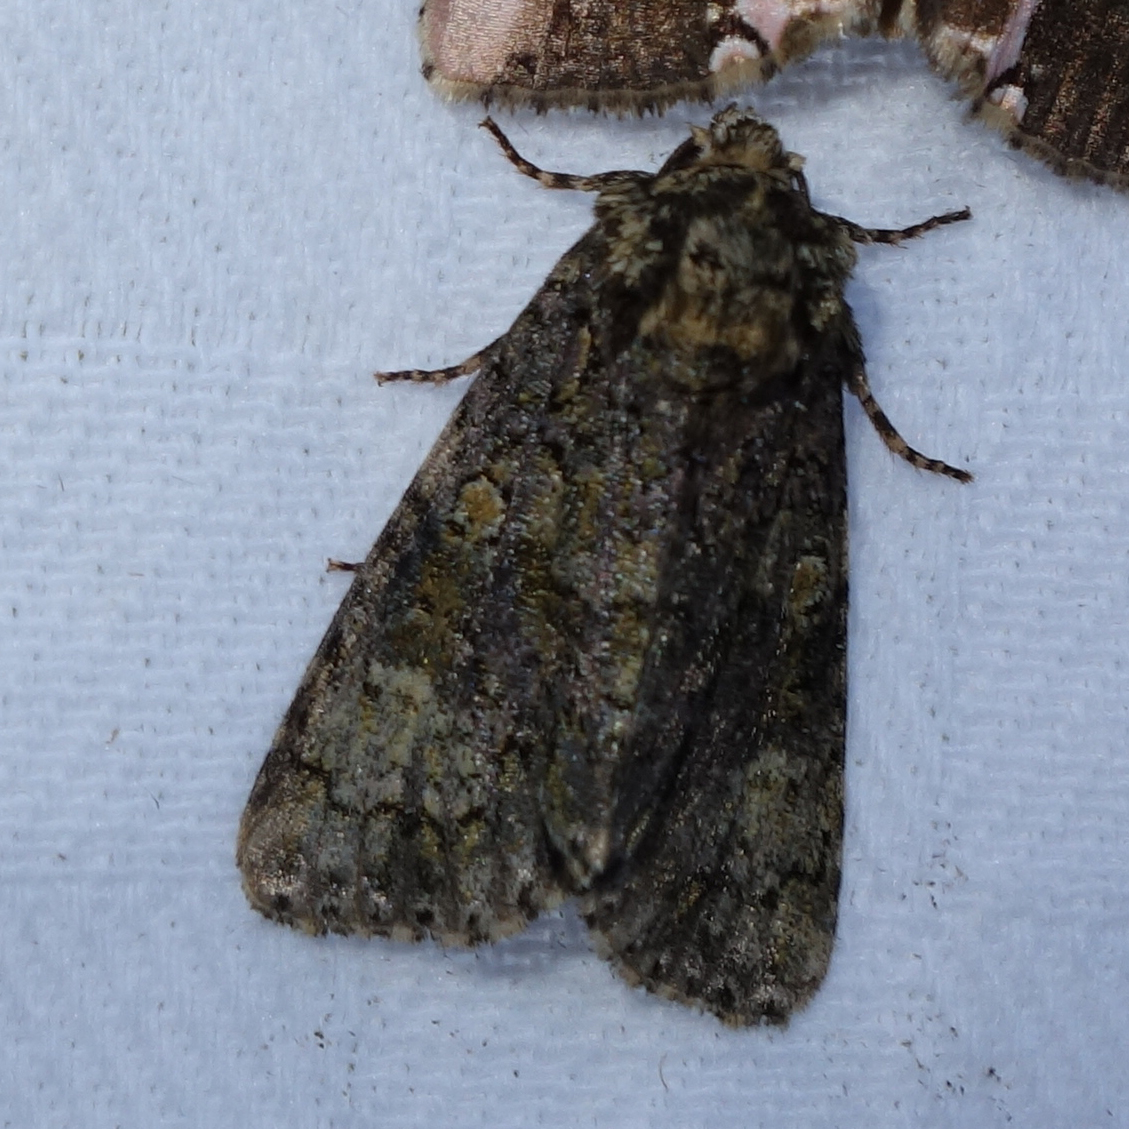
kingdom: Animalia
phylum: Arthropoda
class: Insecta
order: Lepidoptera
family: Noctuidae
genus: Craniophora
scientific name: Craniophora ligustri
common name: Coronet
